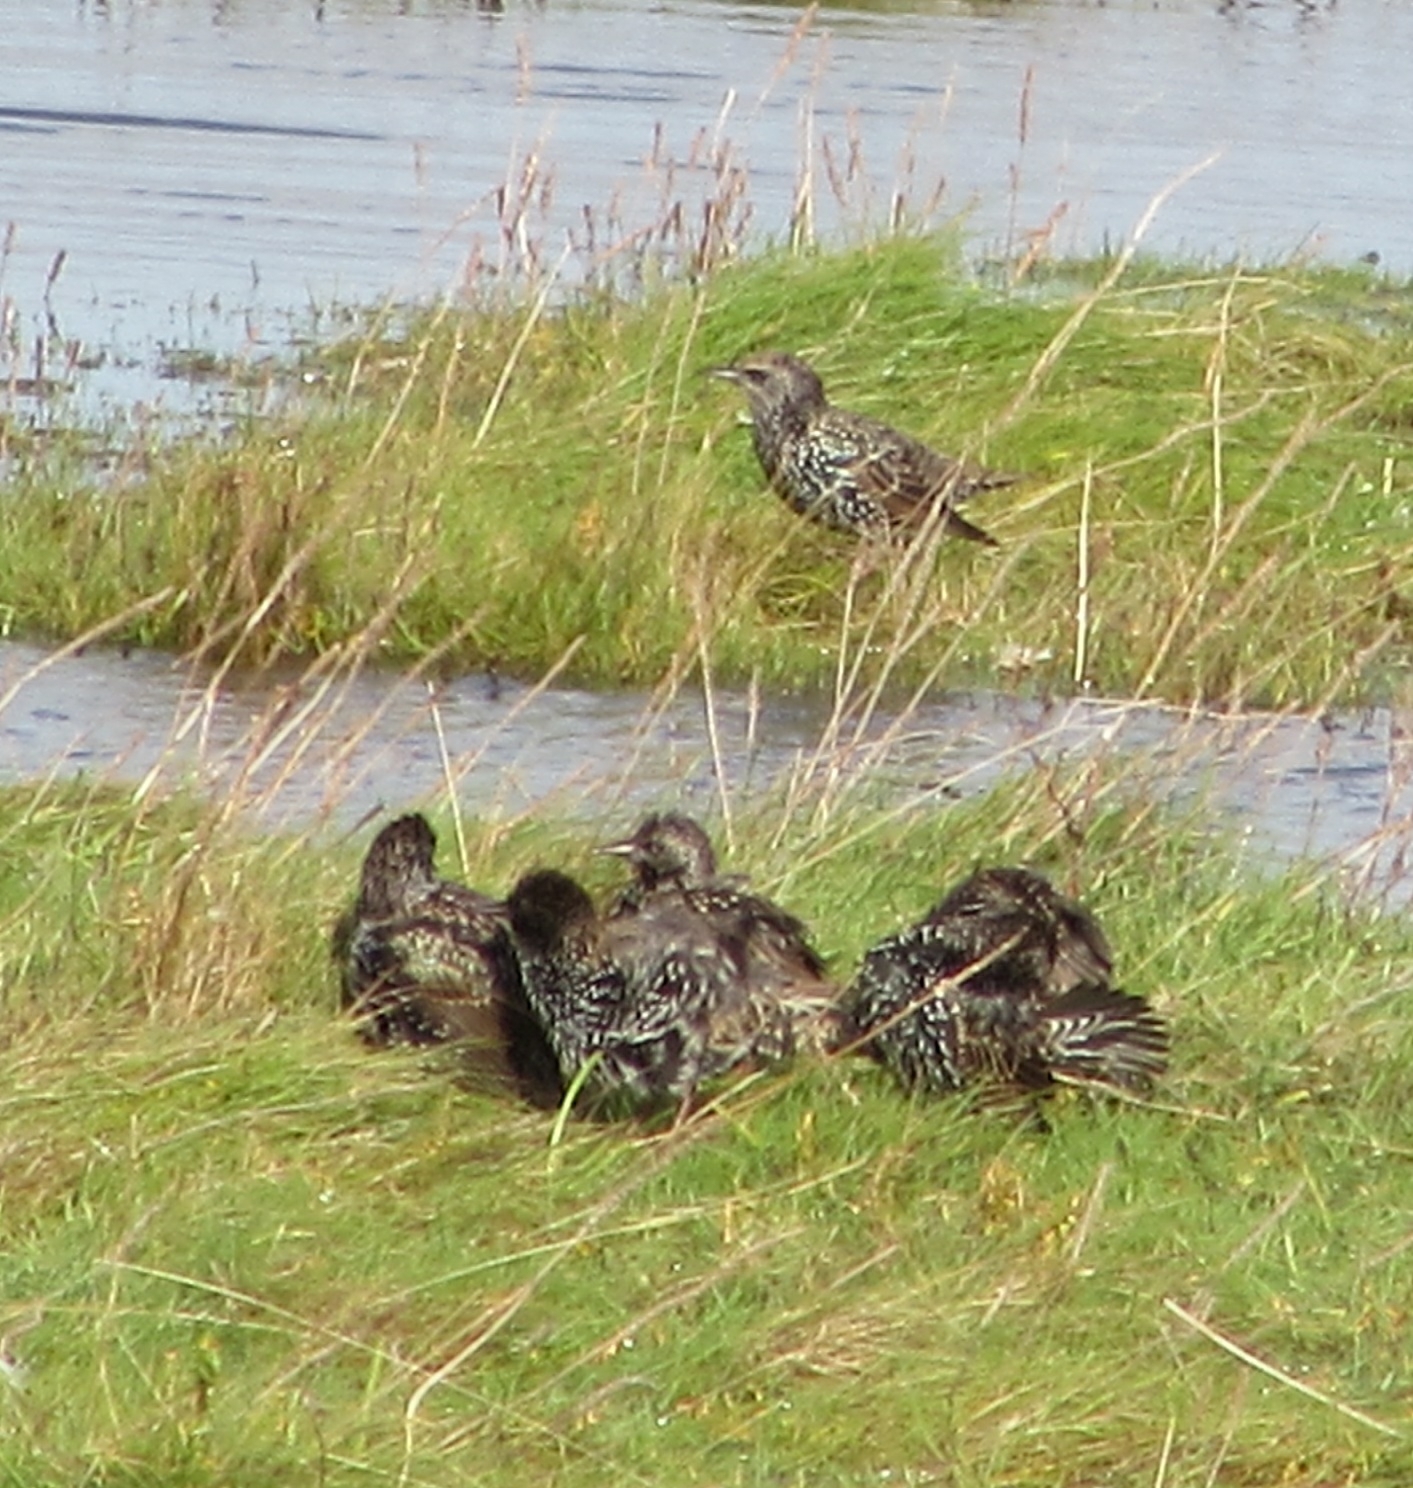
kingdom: Animalia
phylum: Chordata
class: Aves
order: Passeriformes
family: Sturnidae
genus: Sturnus
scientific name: Sturnus vulgaris
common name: Common starling
